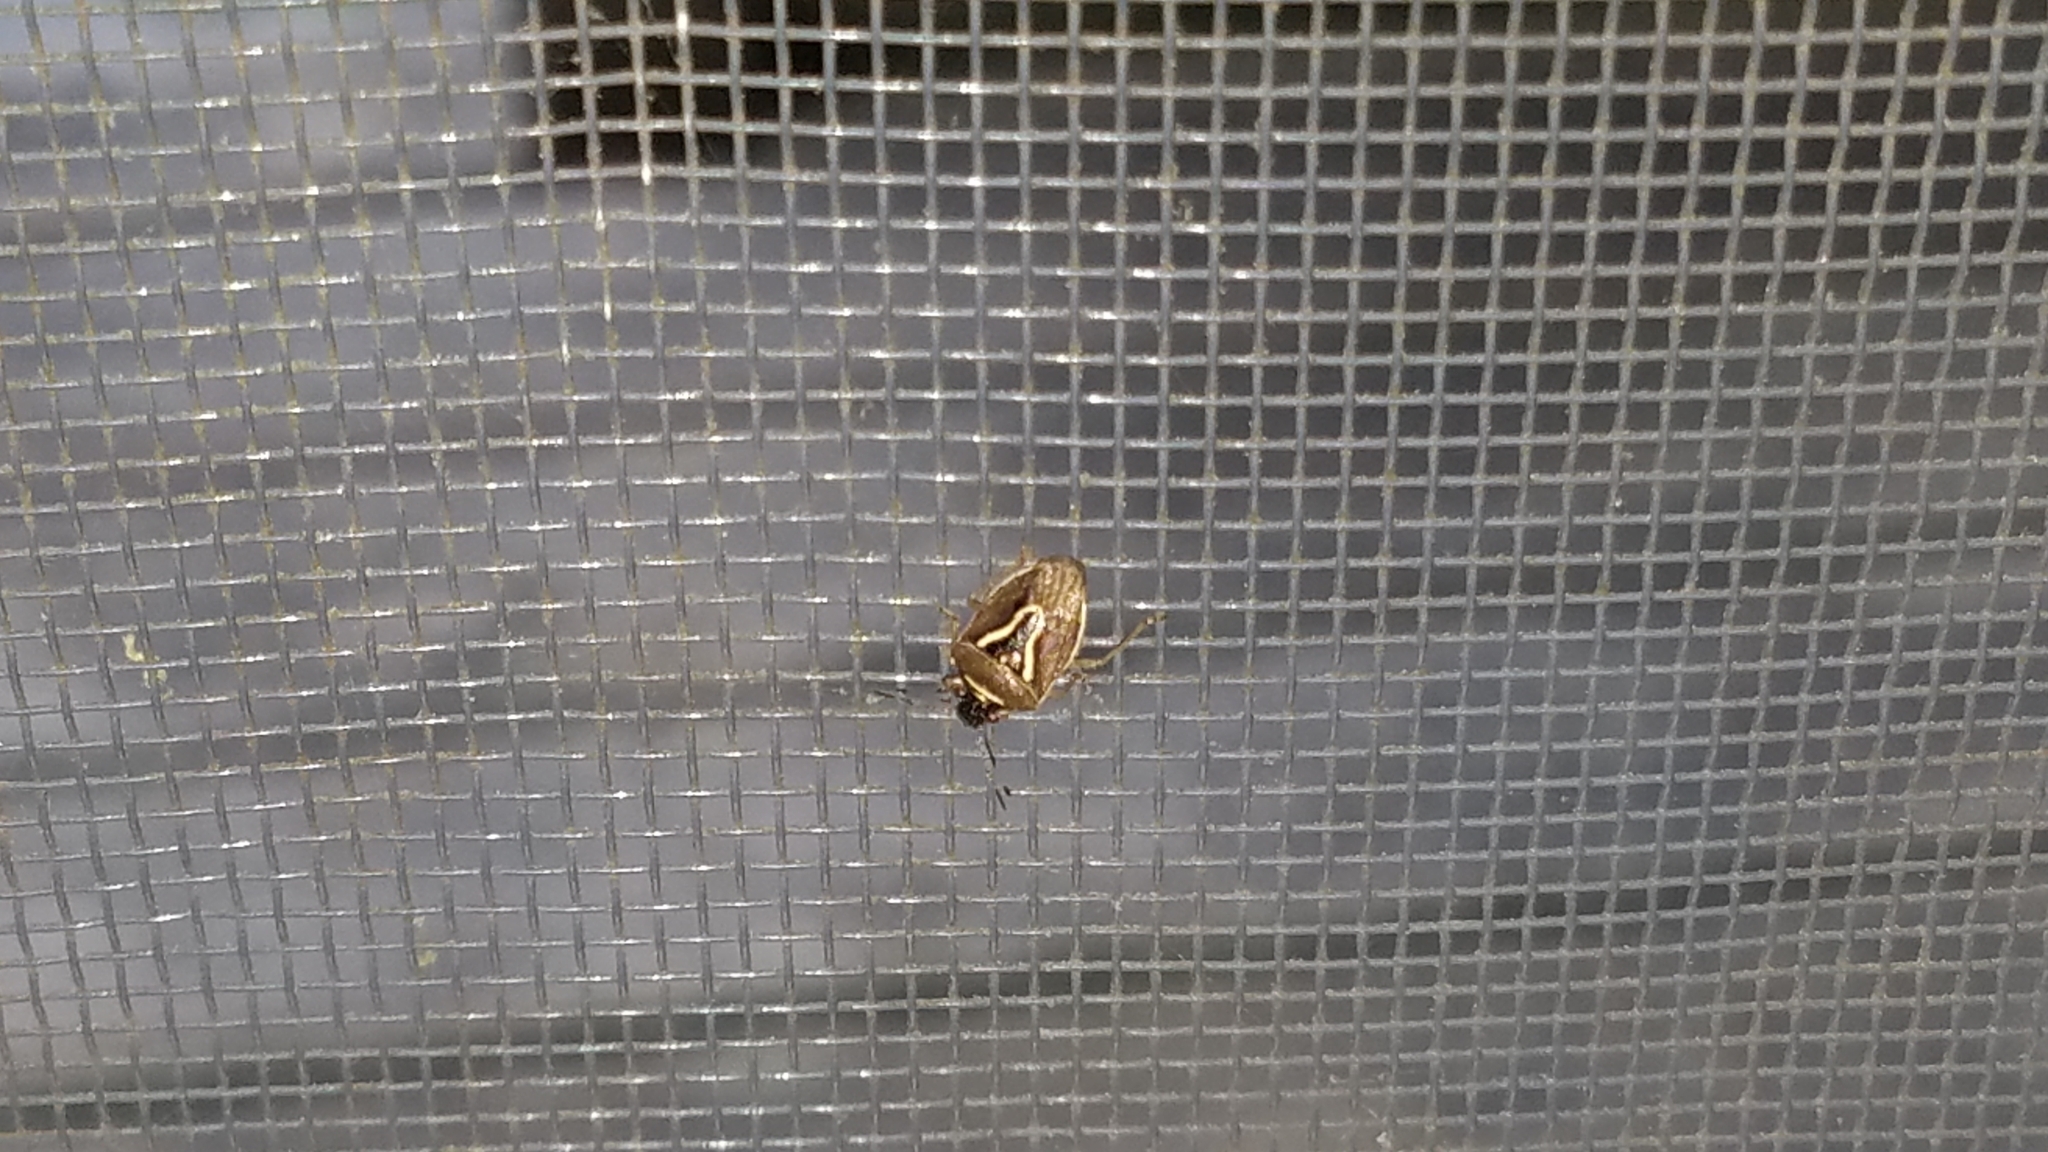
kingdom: Animalia
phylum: Arthropoda
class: Insecta
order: Hemiptera
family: Pentatomidae
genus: Mormidea
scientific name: Mormidea lugens
